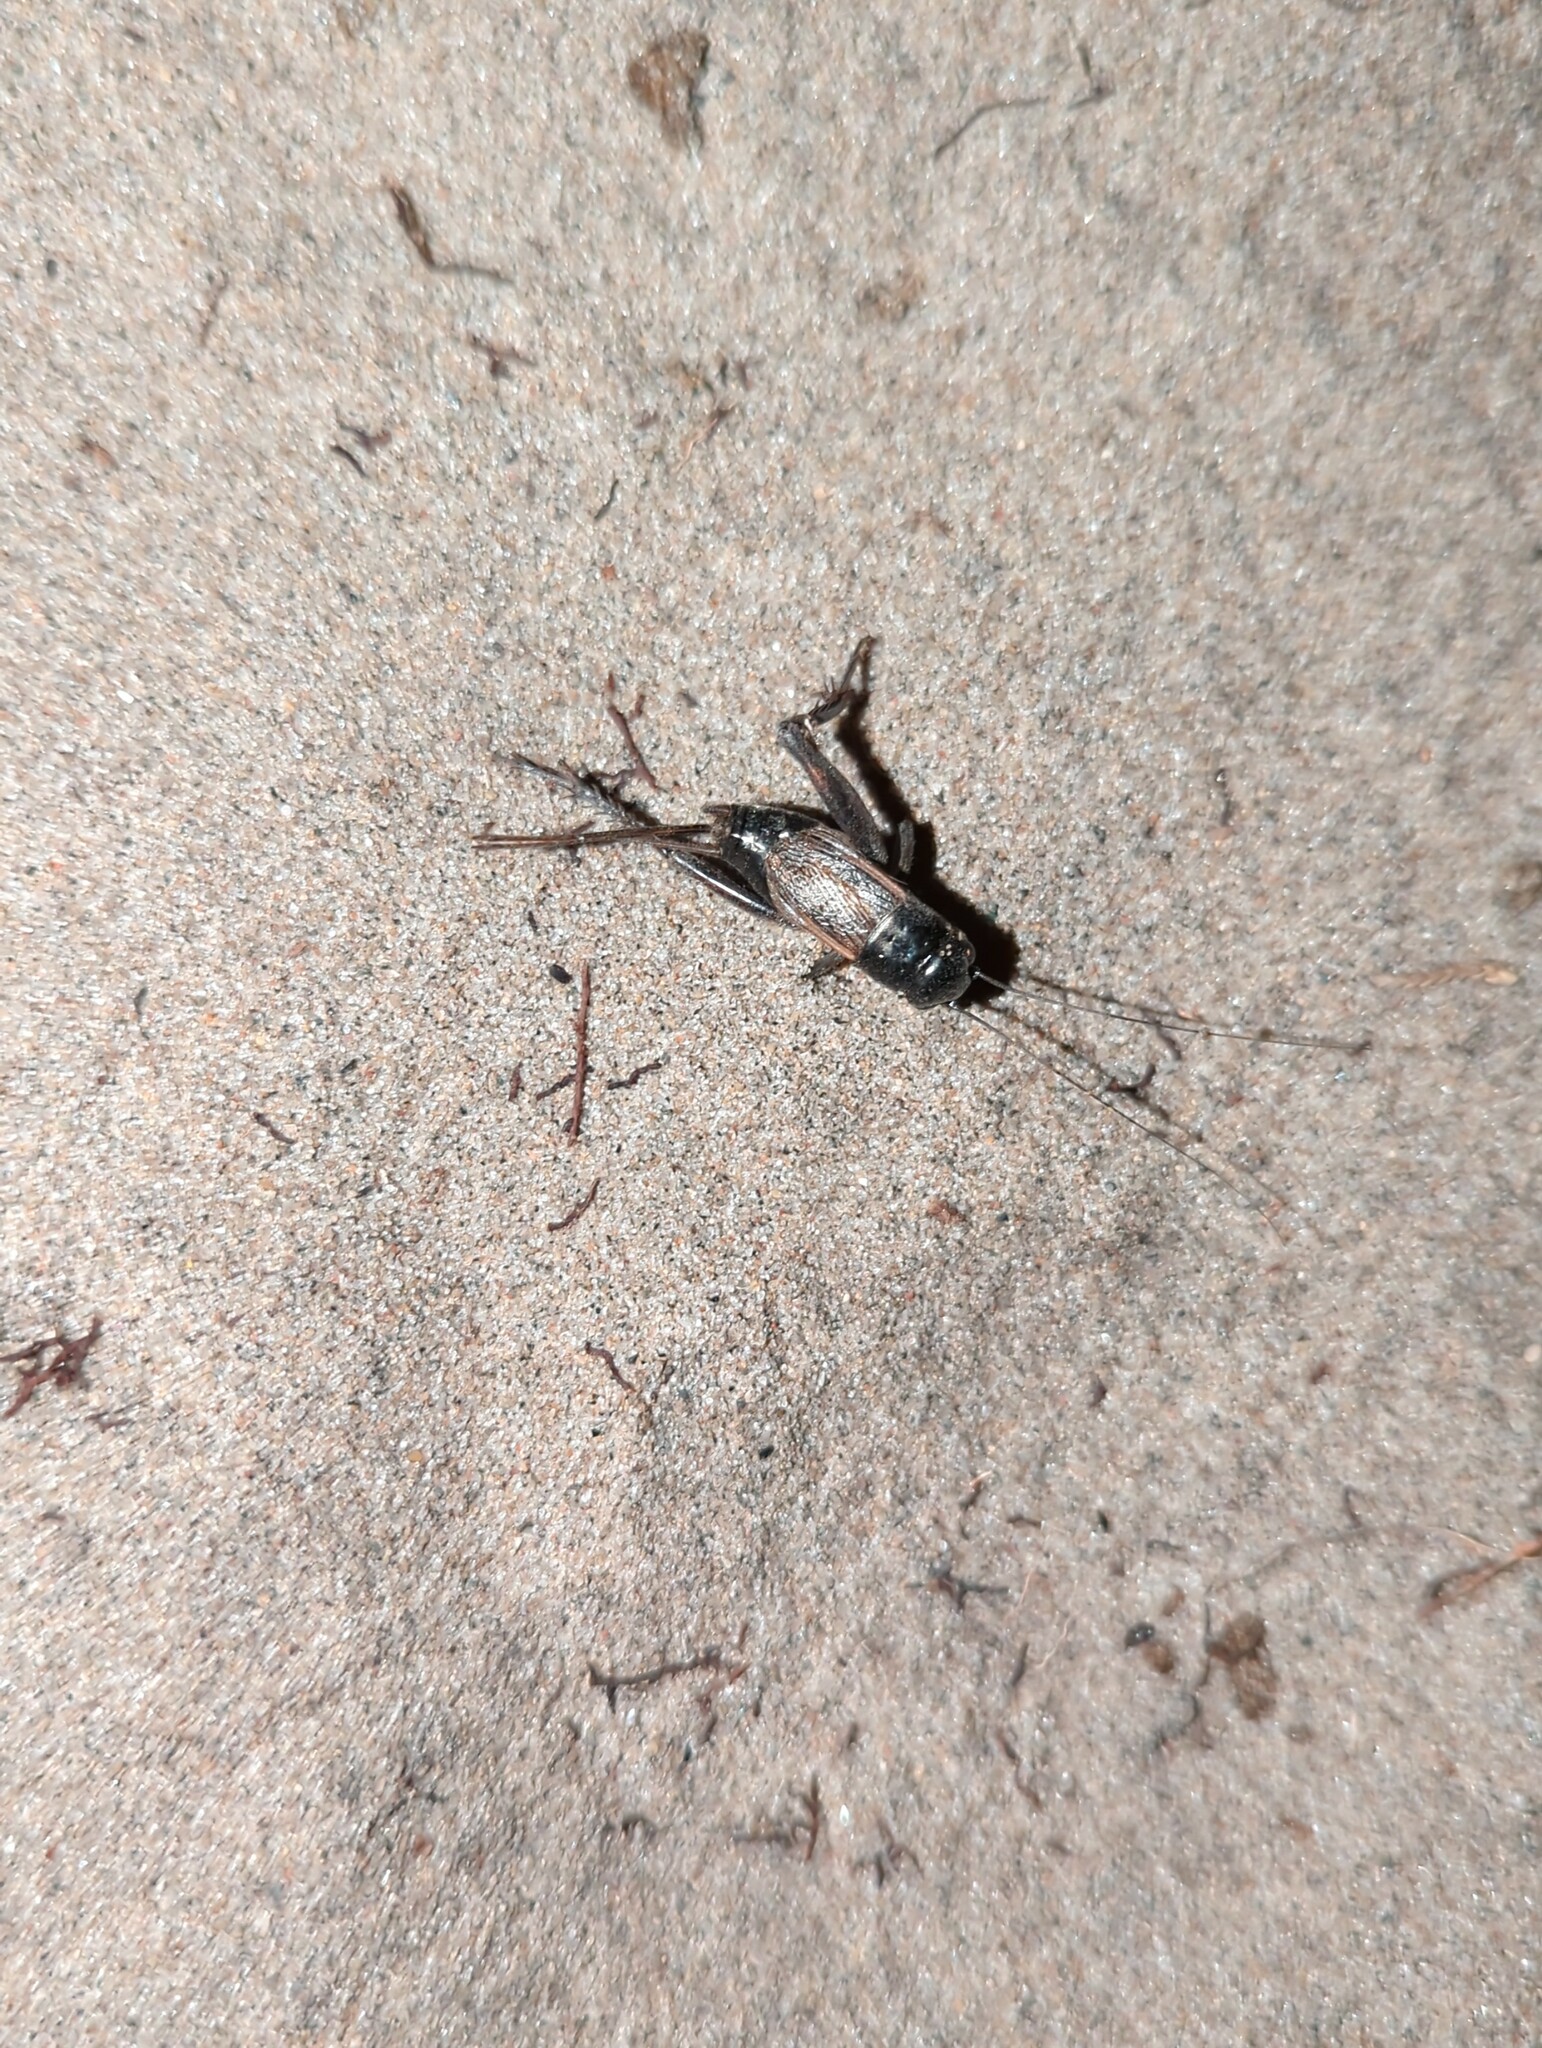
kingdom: Animalia
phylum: Arthropoda
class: Insecta
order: Orthoptera
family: Gryllidae
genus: Gryllus
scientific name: Gryllus pennsylvanicus
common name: Fall field cricket
